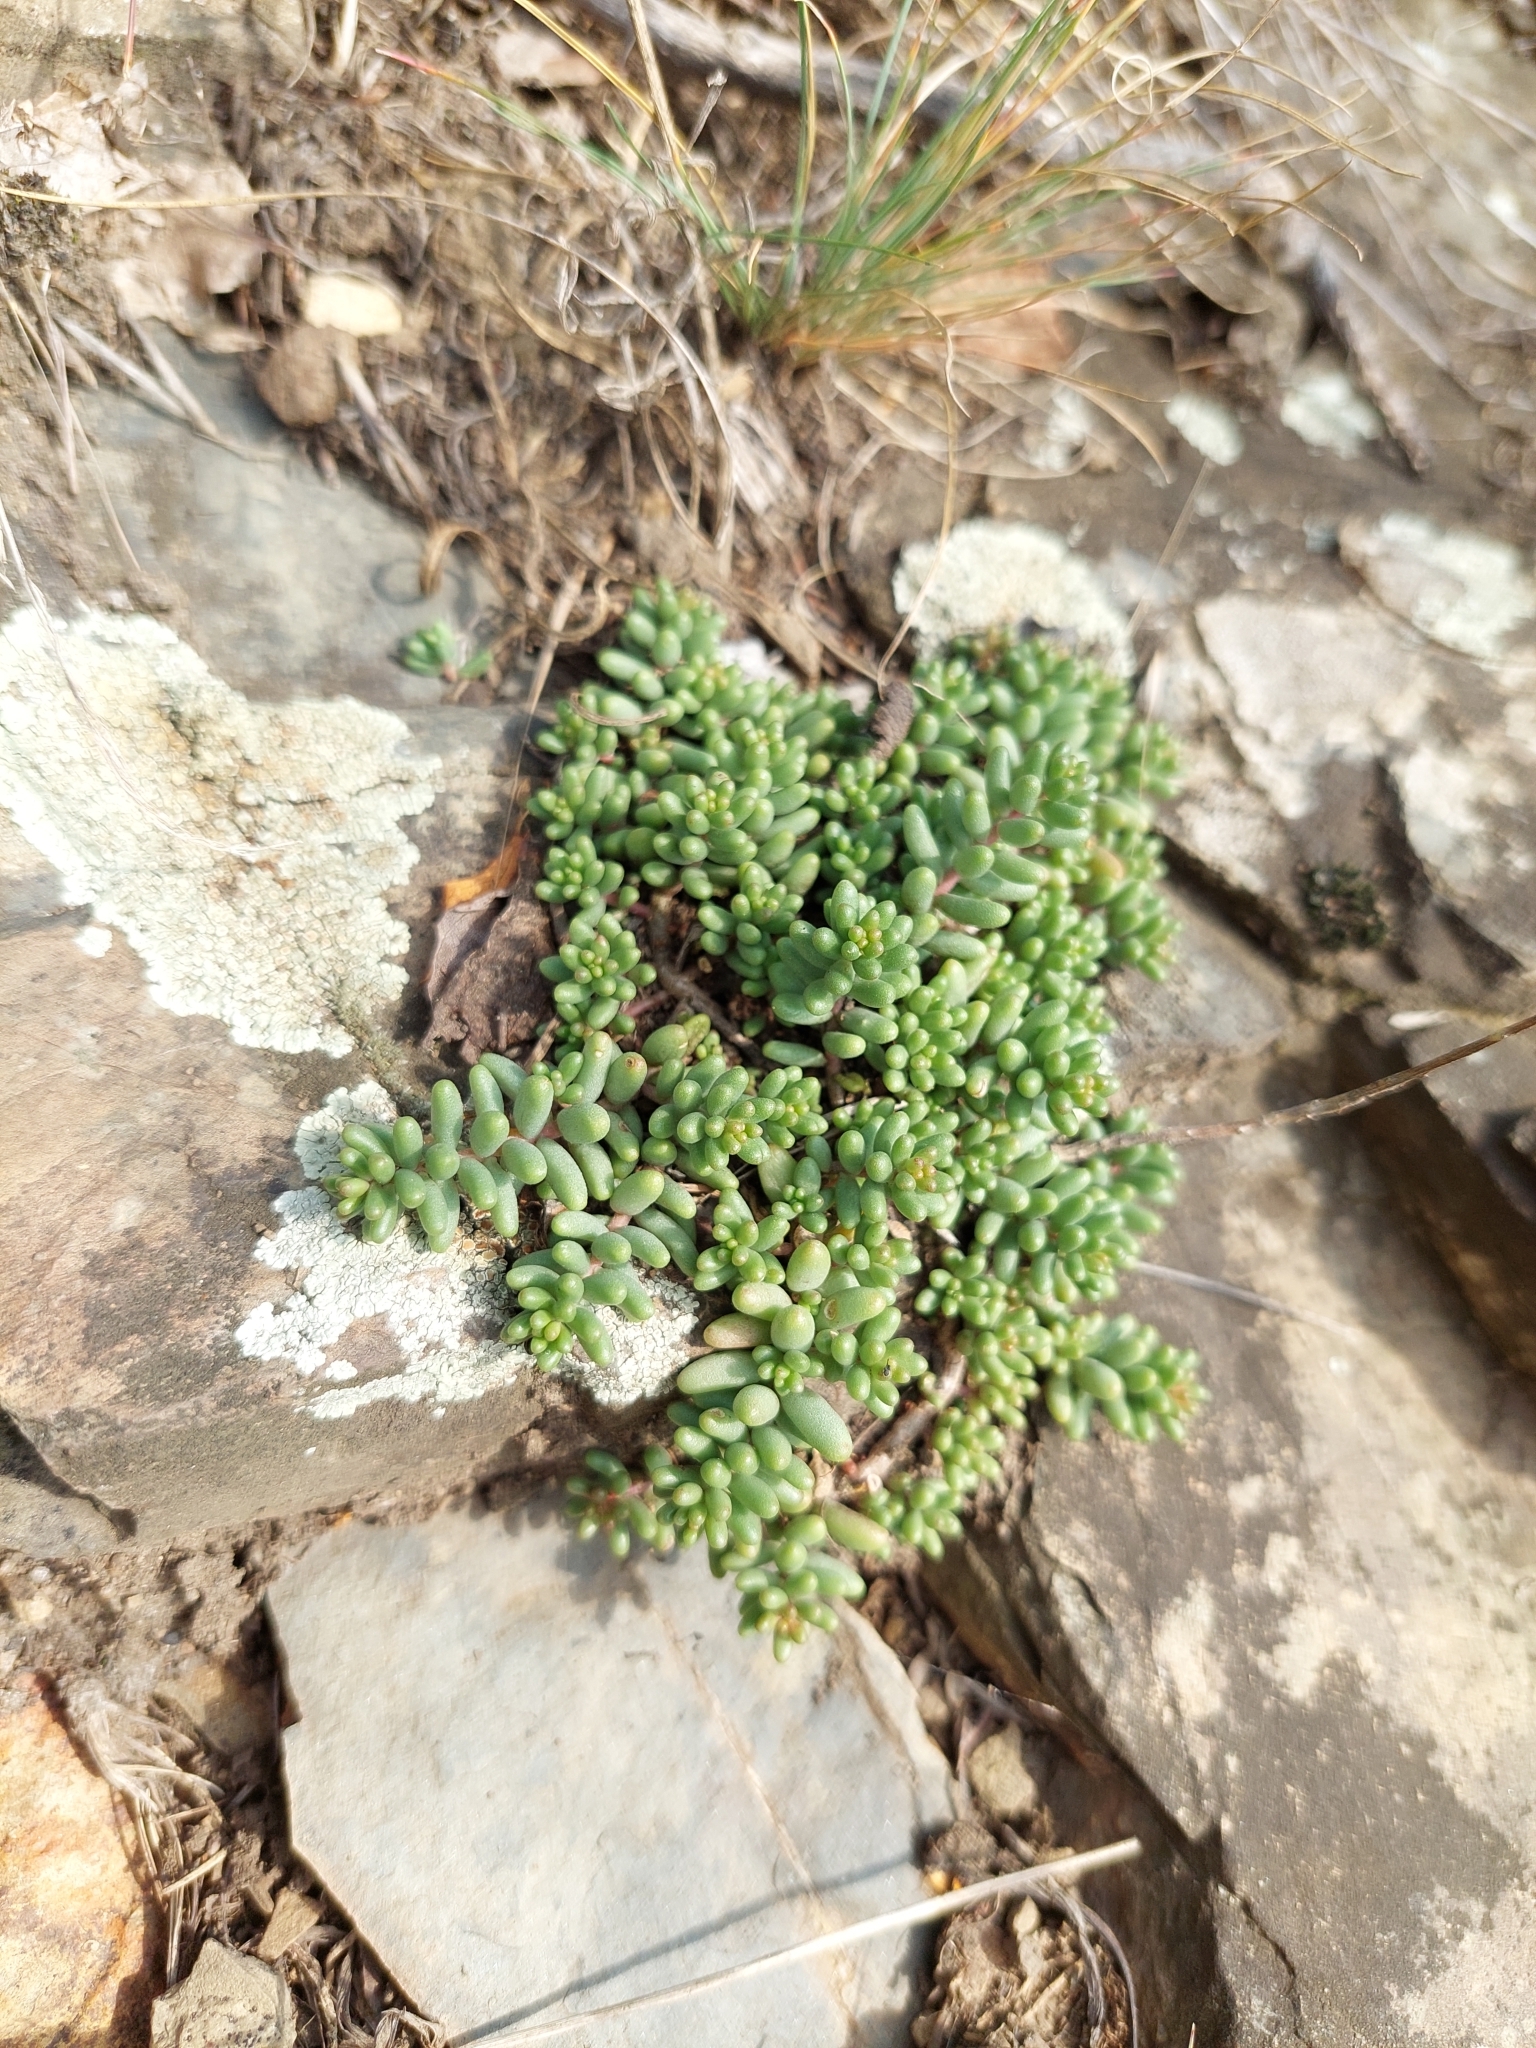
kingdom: Plantae
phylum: Tracheophyta
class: Magnoliopsida
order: Saxifragales
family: Crassulaceae
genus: Sedum
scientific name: Sedum album
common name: White stonecrop
